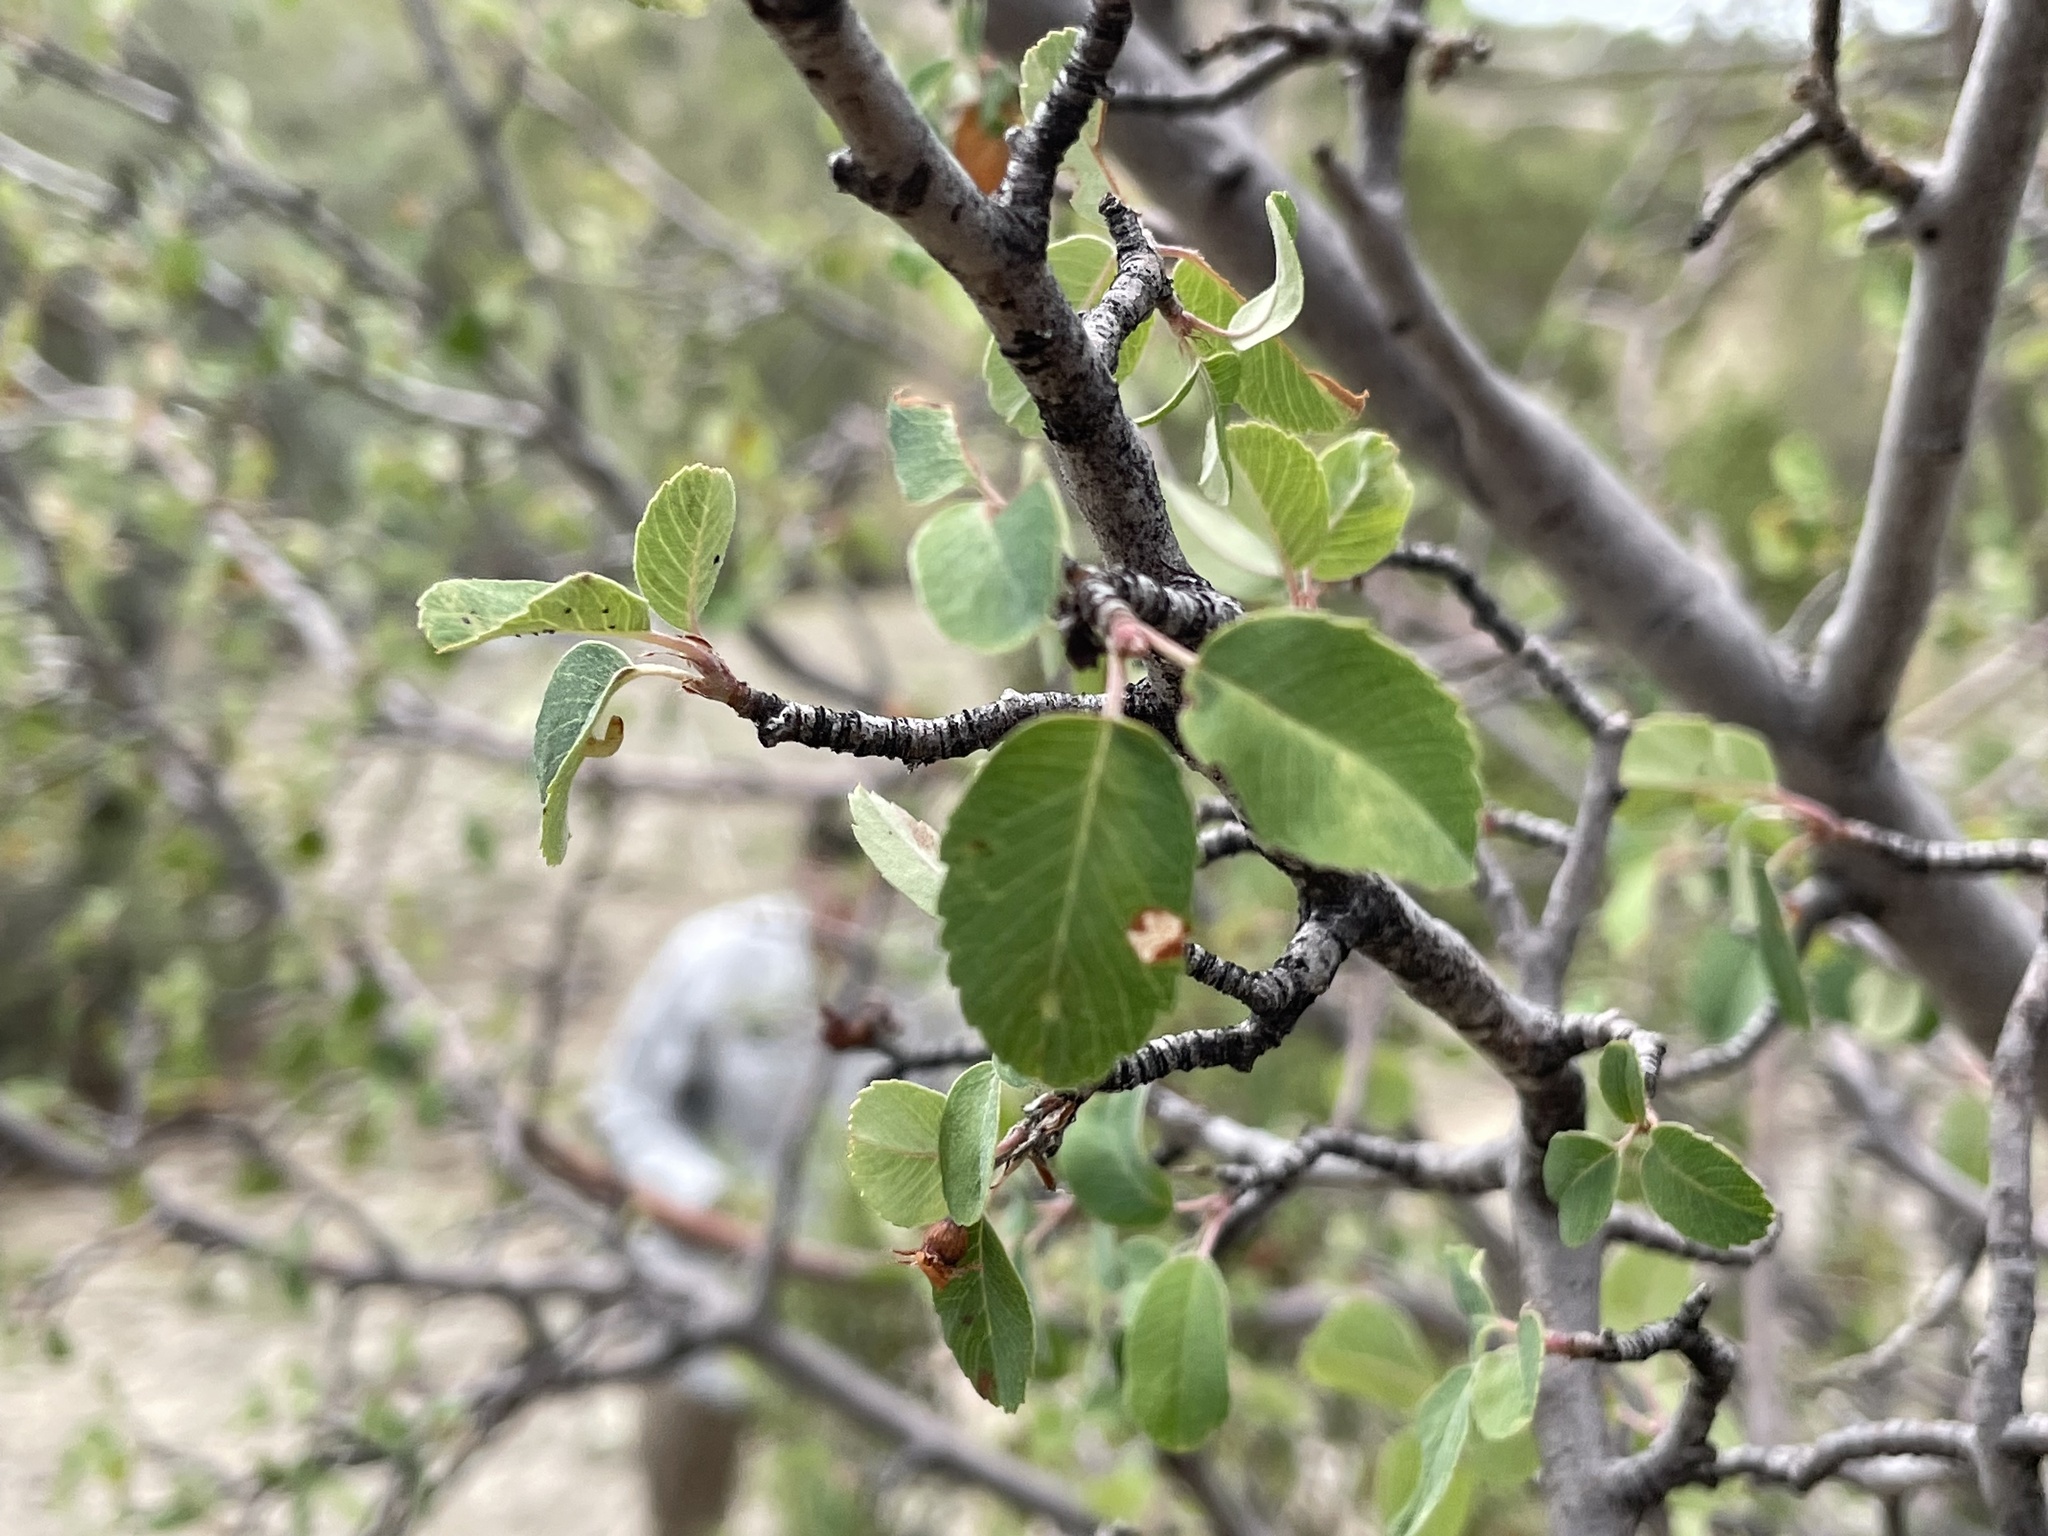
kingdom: Plantae
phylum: Tracheophyta
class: Magnoliopsida
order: Rosales
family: Rosaceae
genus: Amelanchier
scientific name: Amelanchier utahensis
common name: Utah serviceberry
